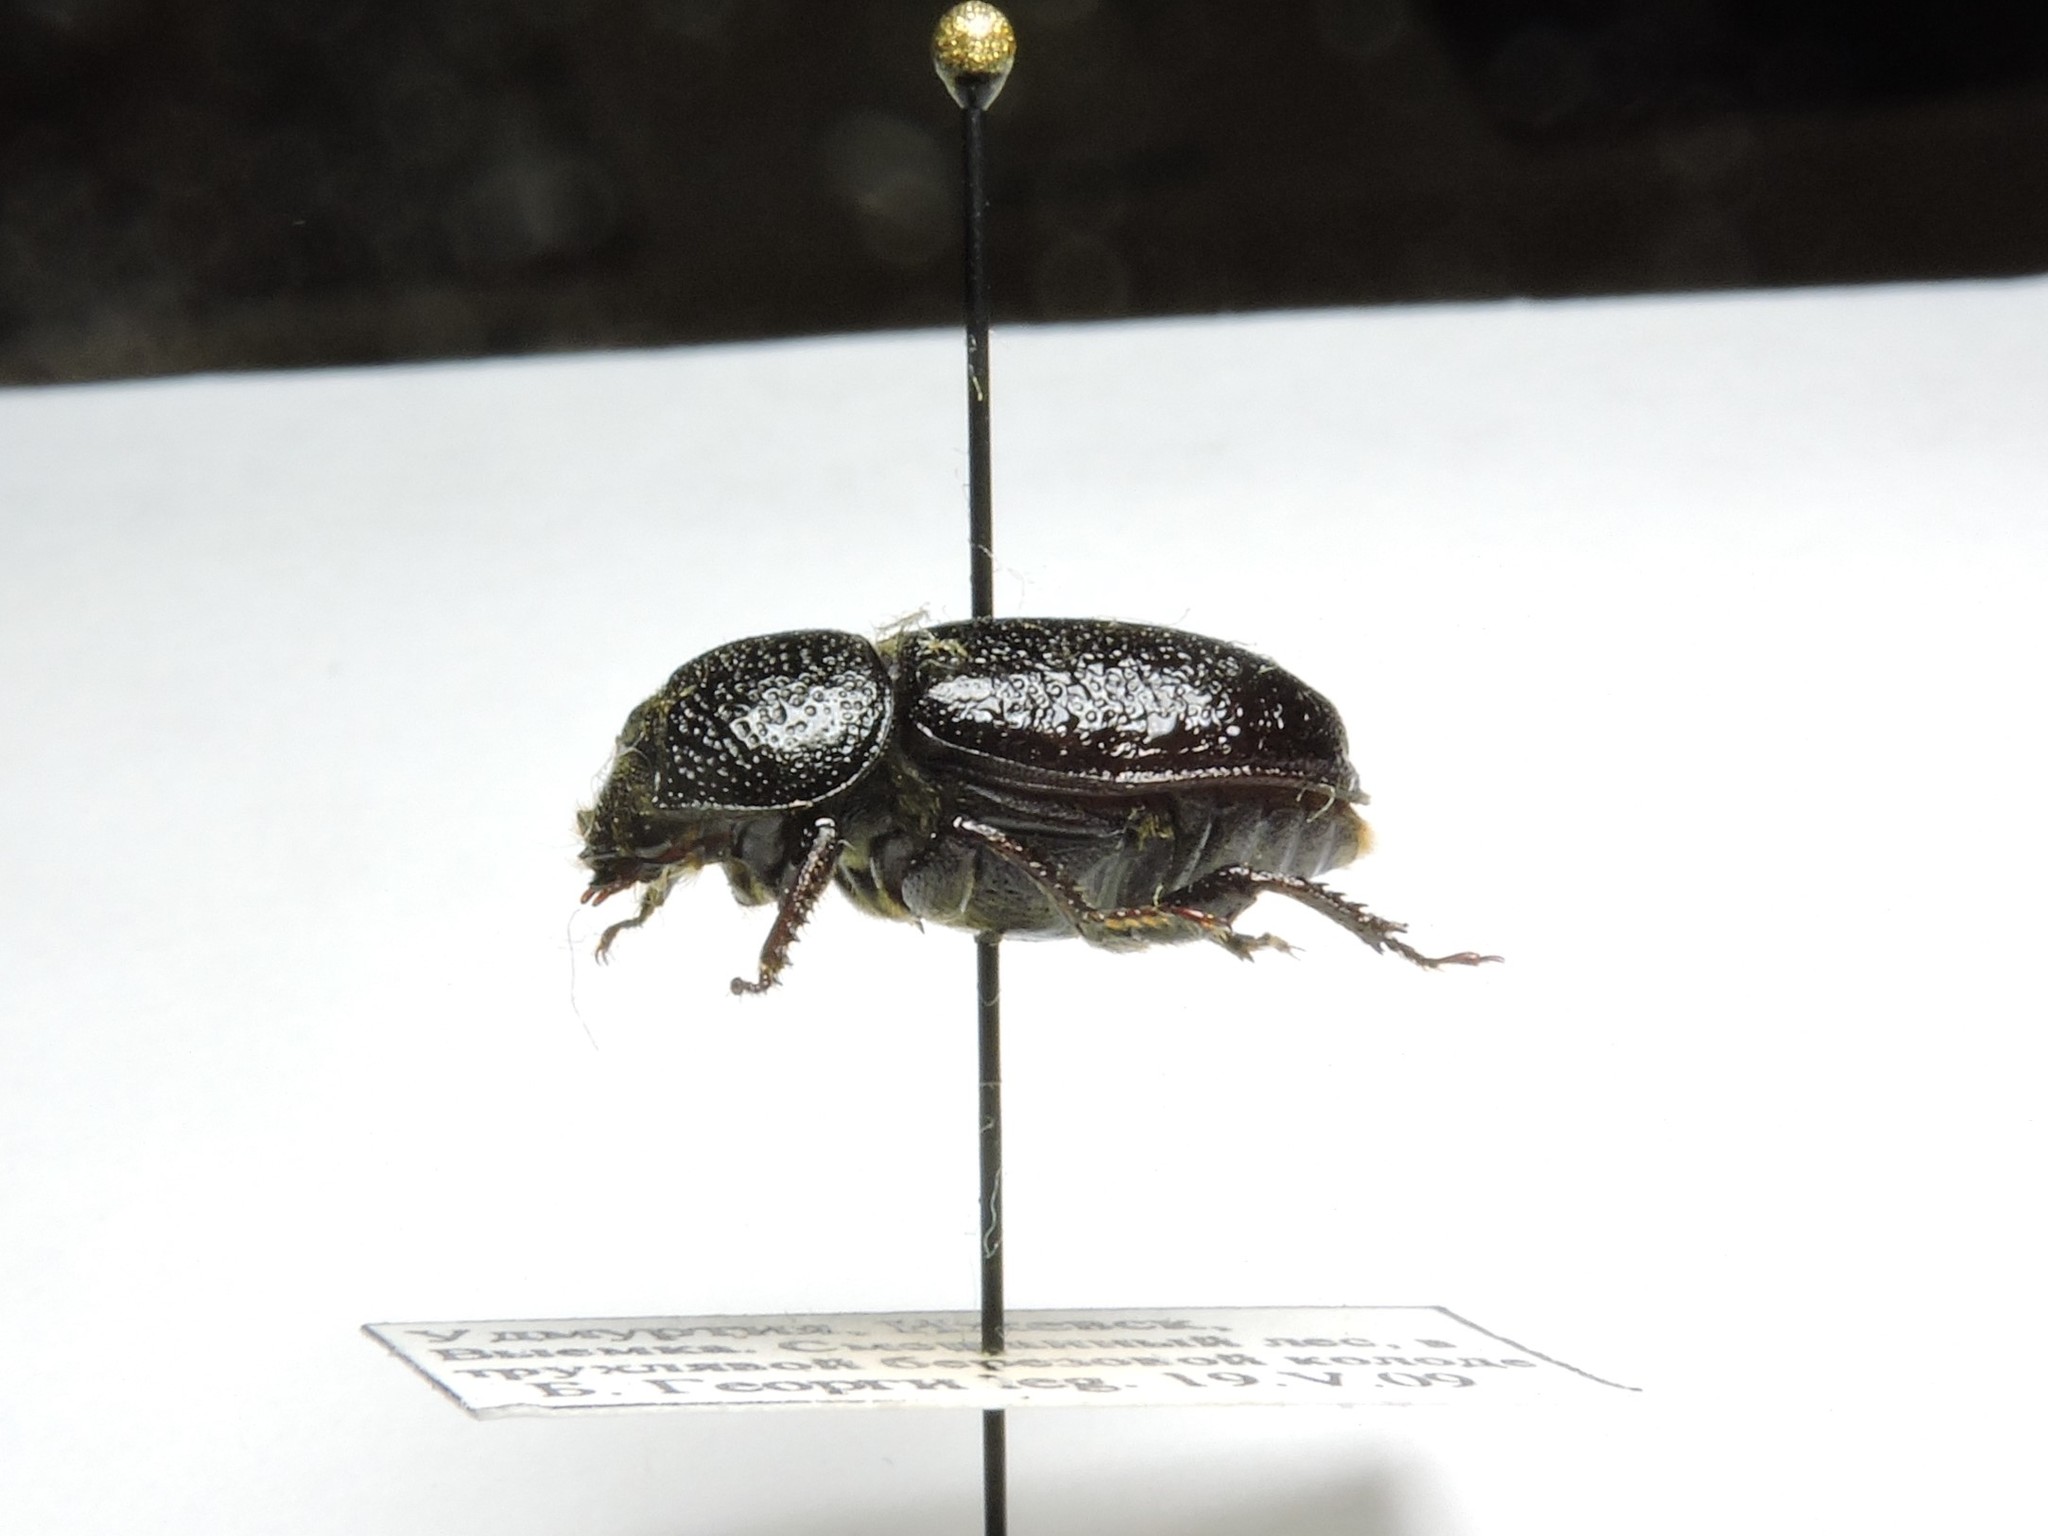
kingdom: Animalia
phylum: Arthropoda
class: Insecta
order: Coleoptera
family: Lucanidae
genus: Sinodendron
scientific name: Sinodendron cylindricum
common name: Rhinoceros beetle
